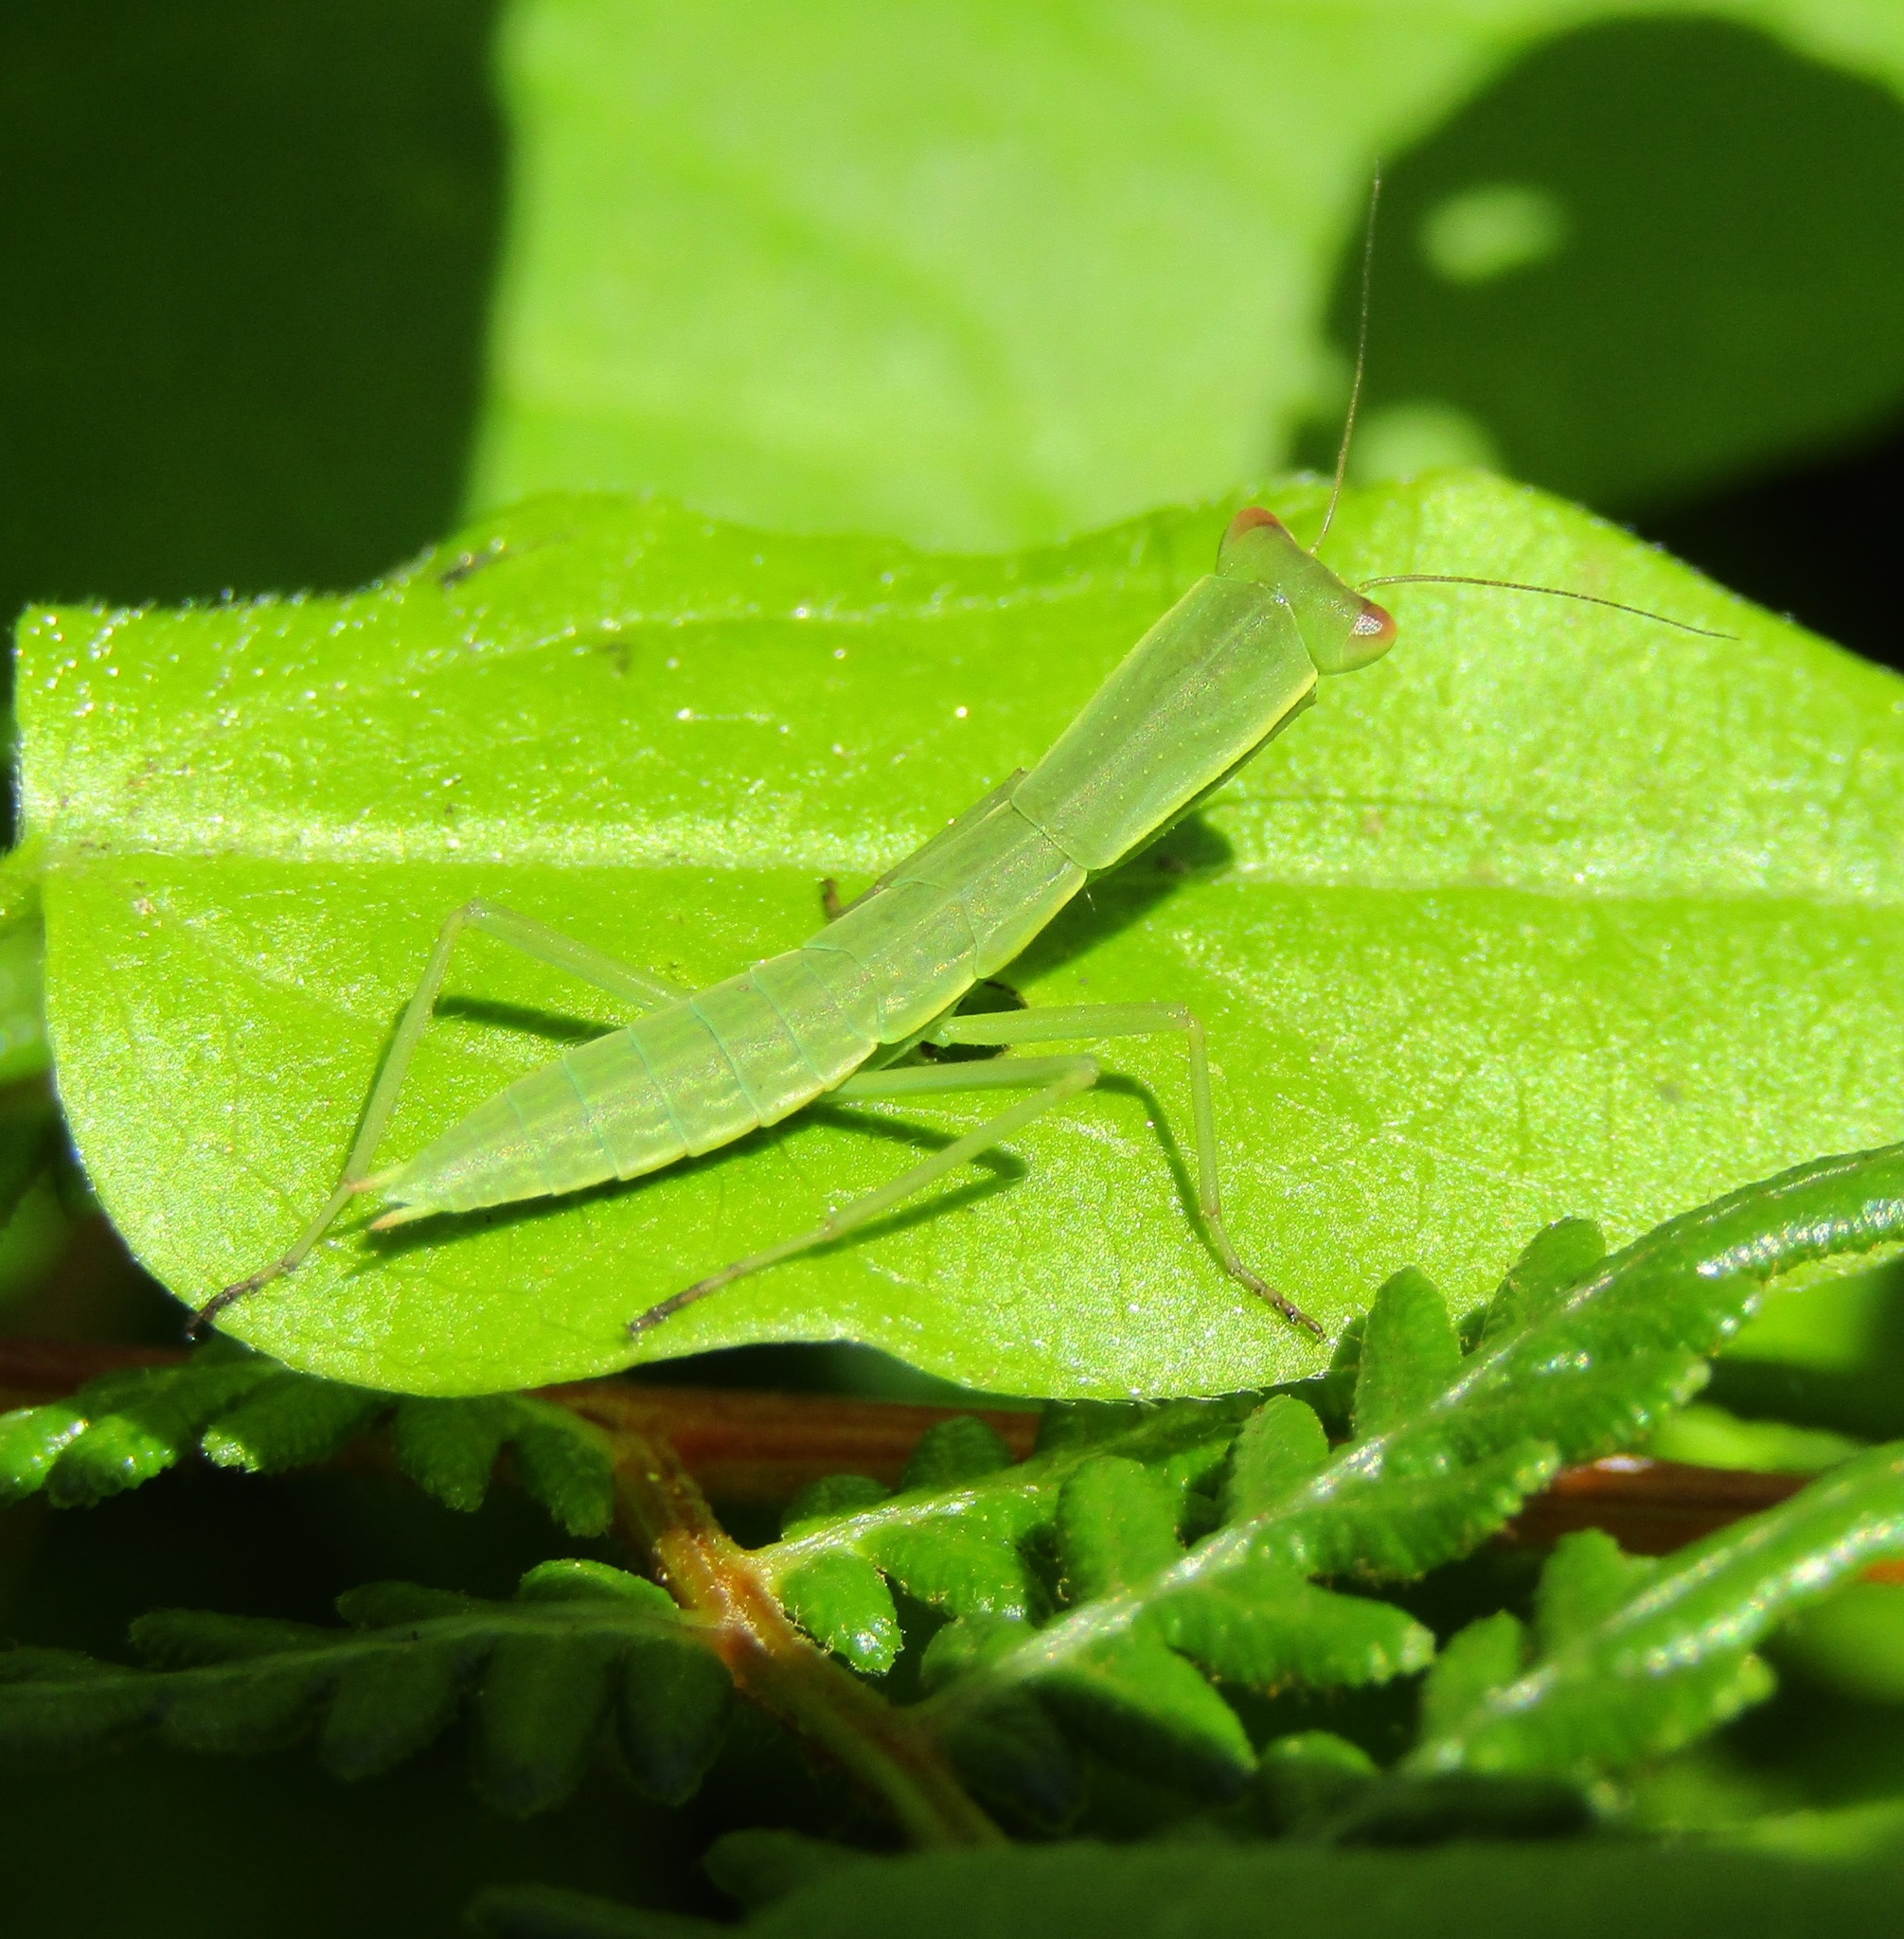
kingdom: Animalia
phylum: Arthropoda
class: Insecta
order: Mantodea
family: Mantidae
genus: Orthodera
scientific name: Orthodera novaezealandiae
